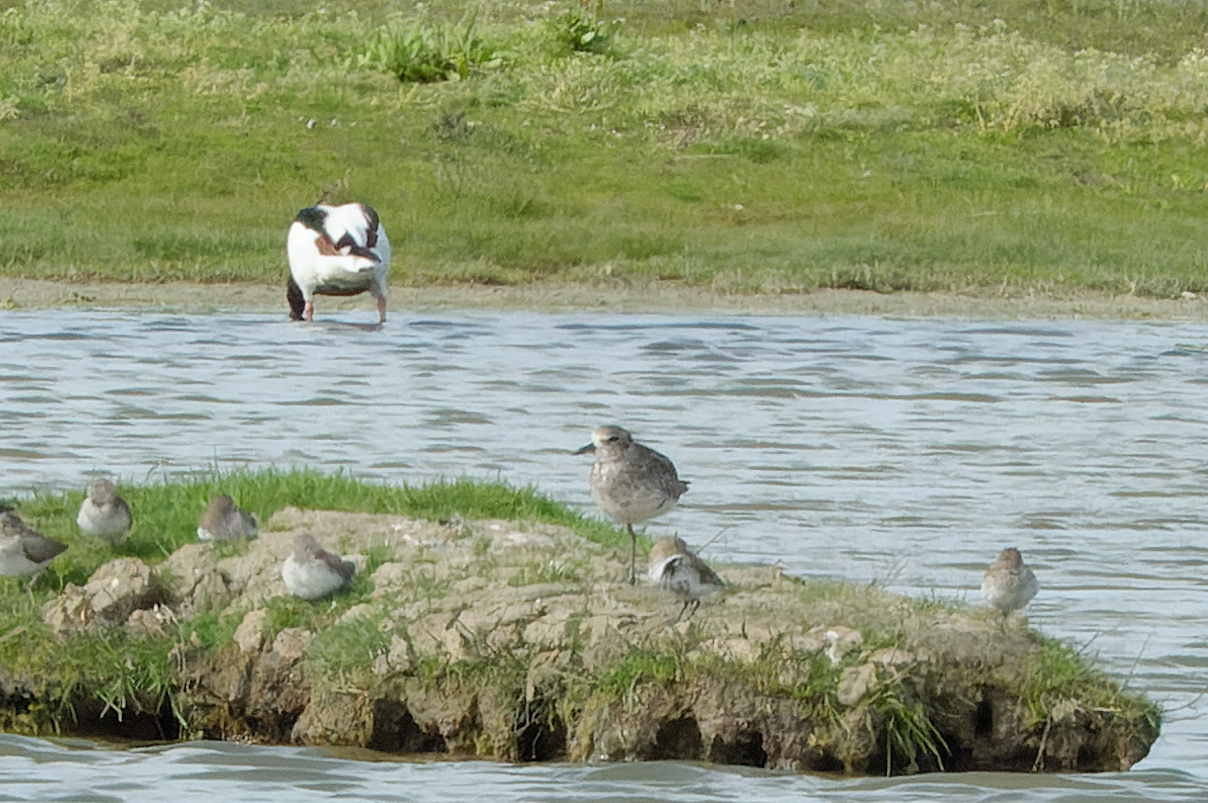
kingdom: Animalia
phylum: Chordata
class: Aves
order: Charadriiformes
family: Charadriidae
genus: Pluvialis
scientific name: Pluvialis squatarola
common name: Grey plover
